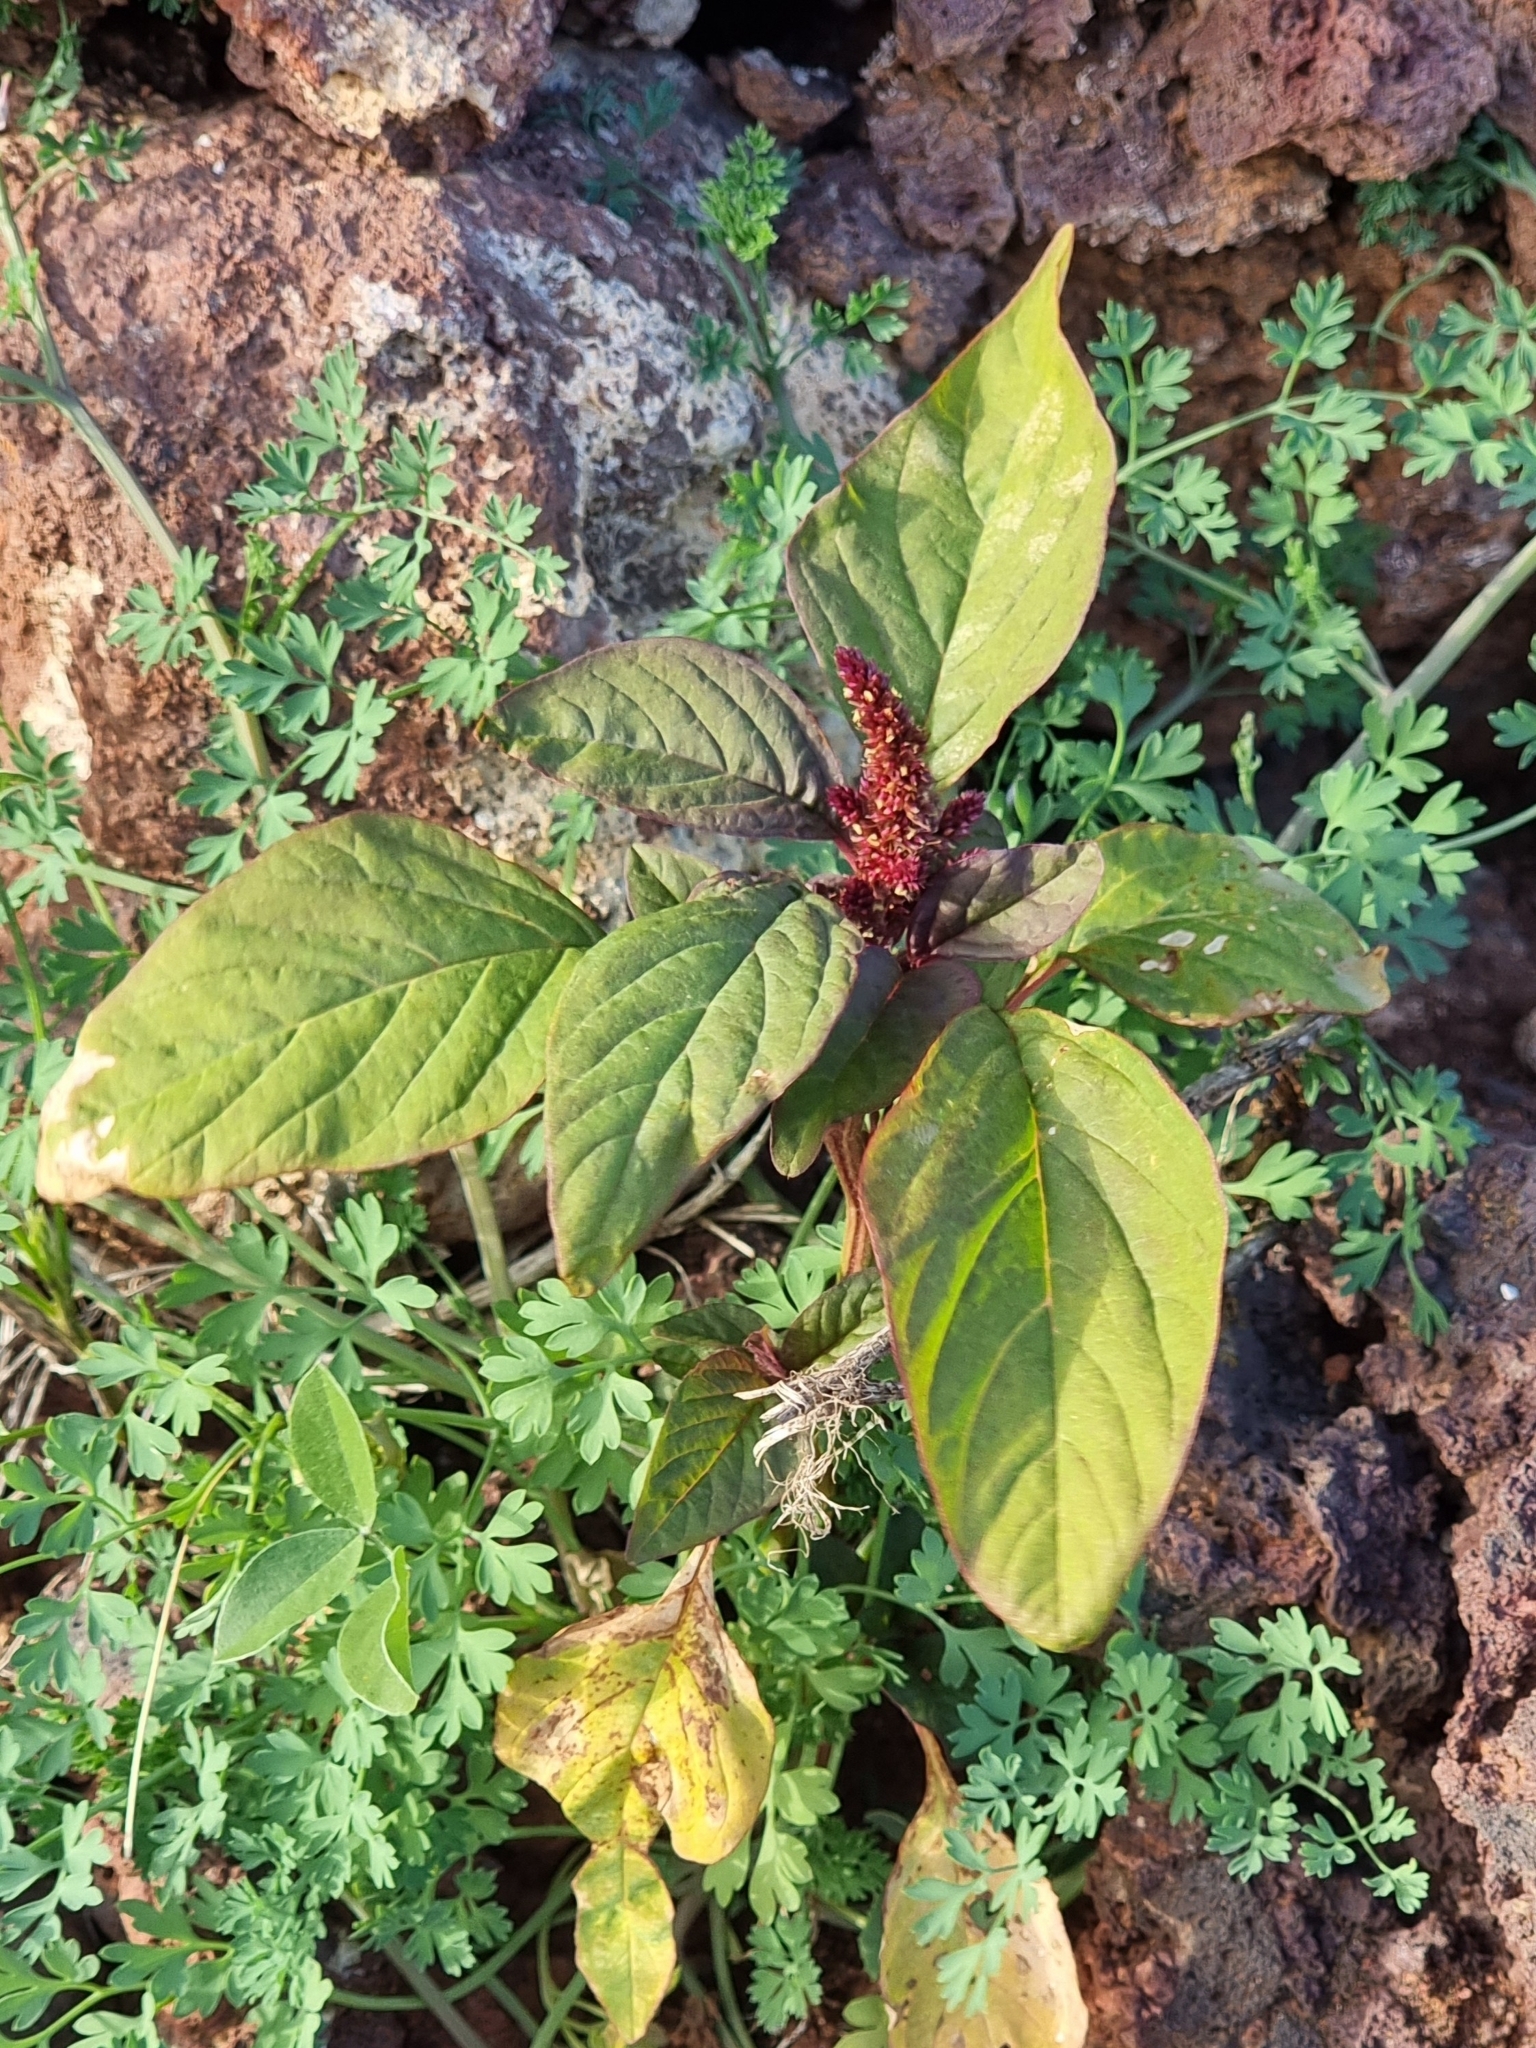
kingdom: Plantae
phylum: Tracheophyta
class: Magnoliopsida
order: Caryophyllales
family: Amaranthaceae
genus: Amaranthus
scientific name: Amaranthus caudatus
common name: Love-lies-bleeding
